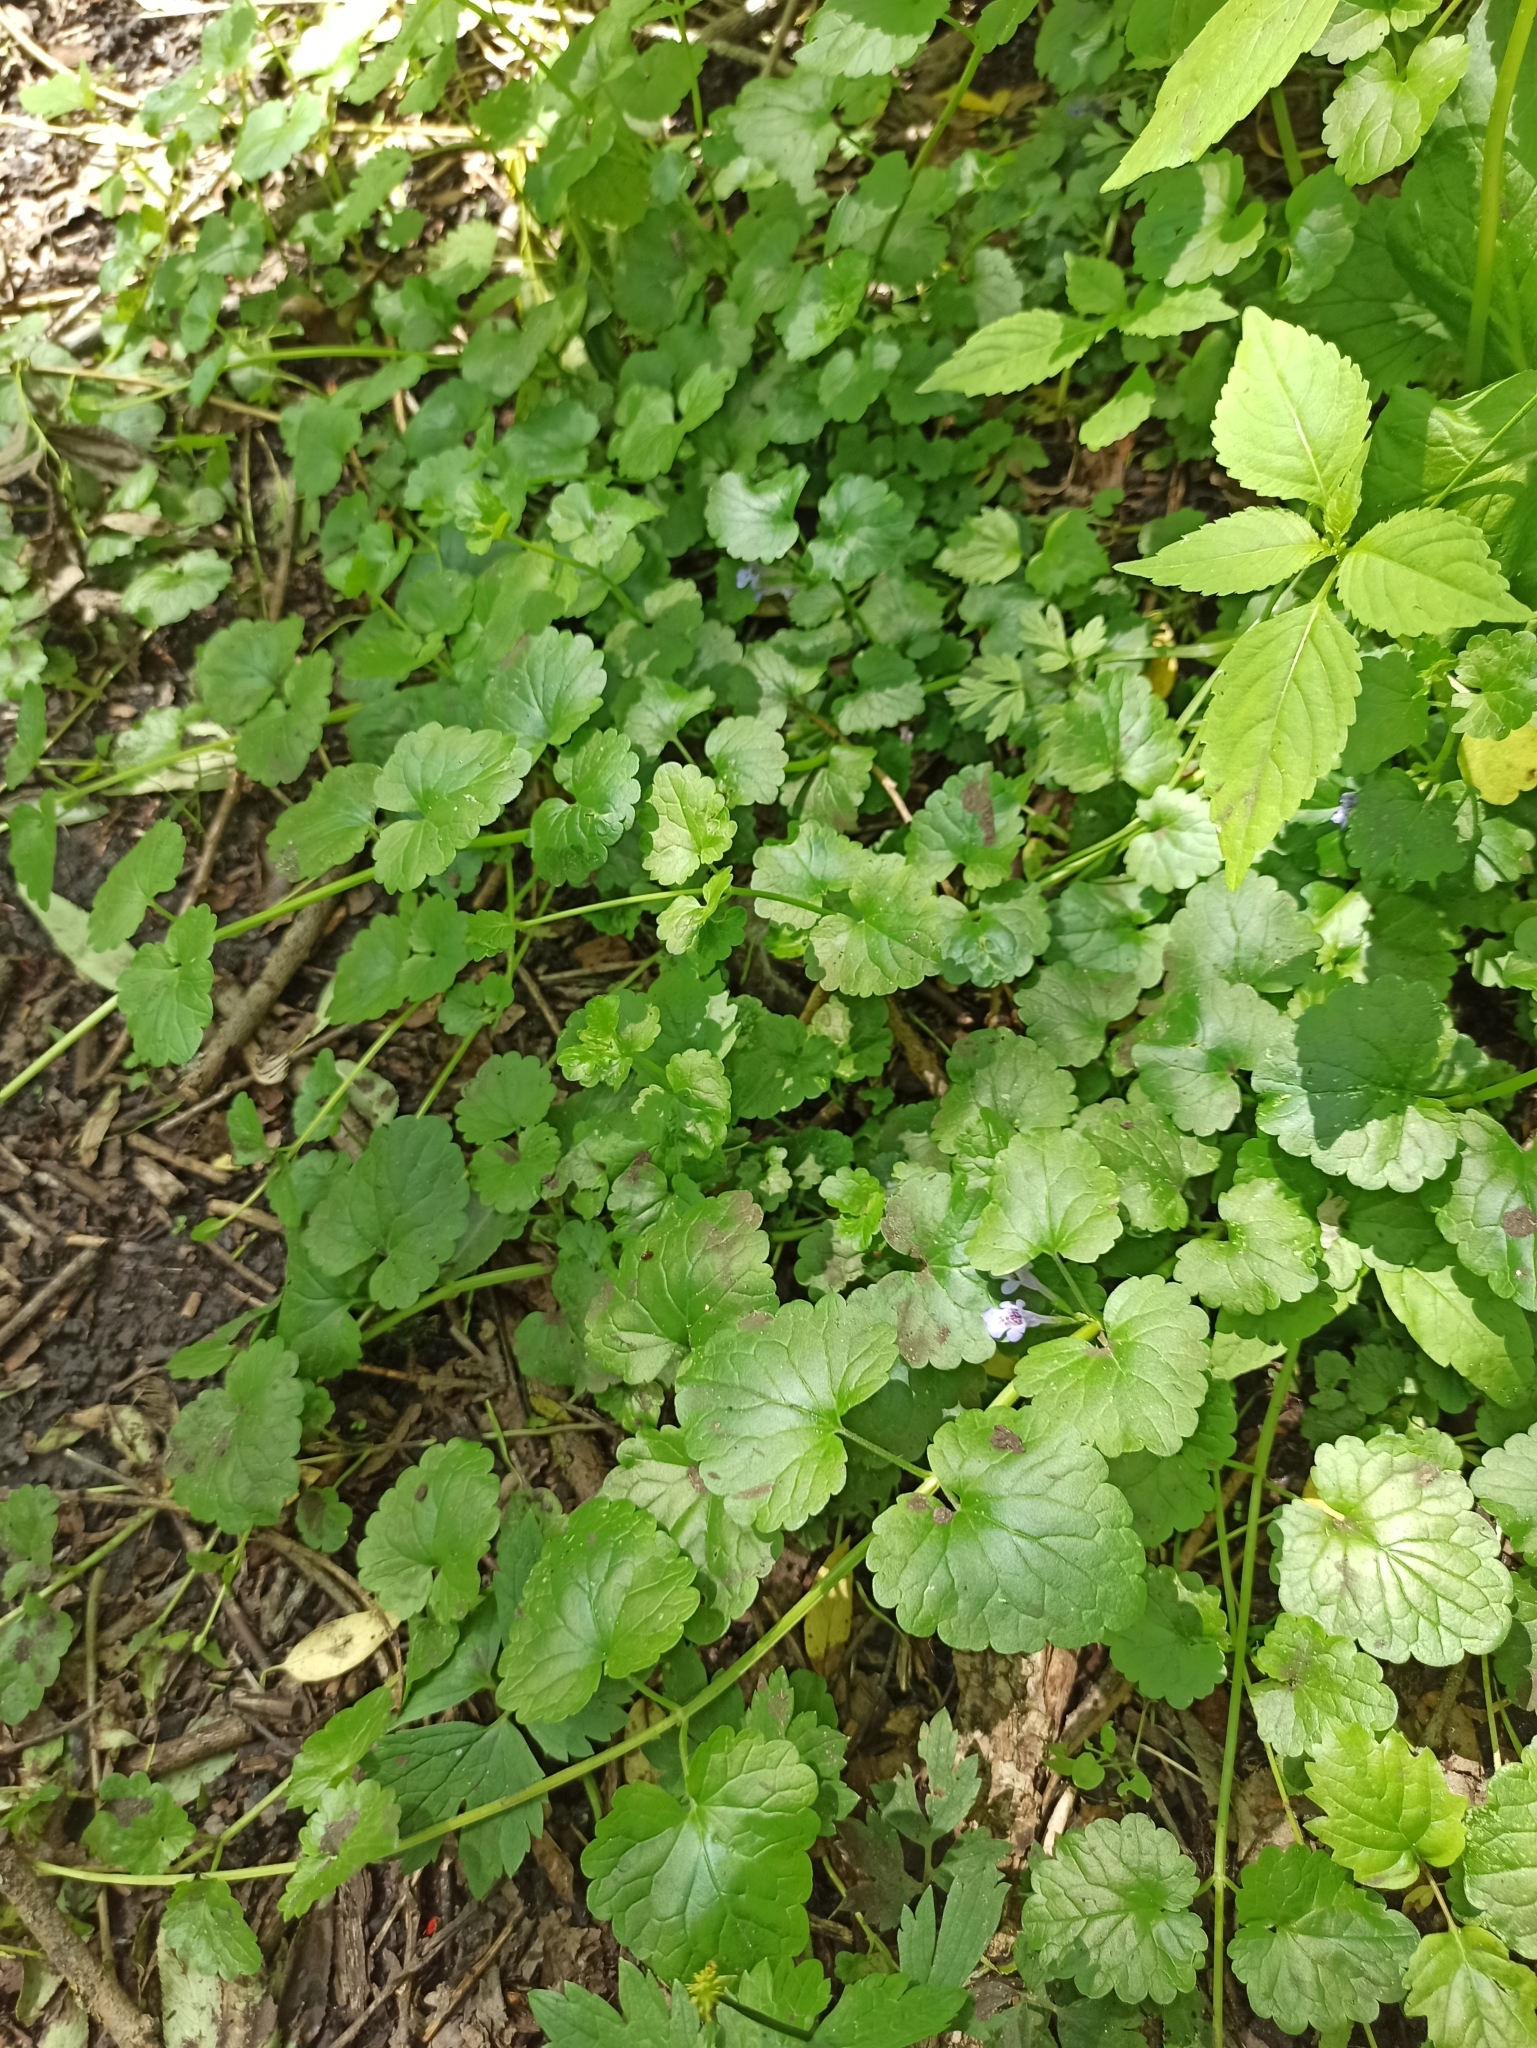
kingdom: Plantae
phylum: Tracheophyta
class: Magnoliopsida
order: Lamiales
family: Lamiaceae
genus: Glechoma
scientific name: Glechoma hederacea
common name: Ground ivy
